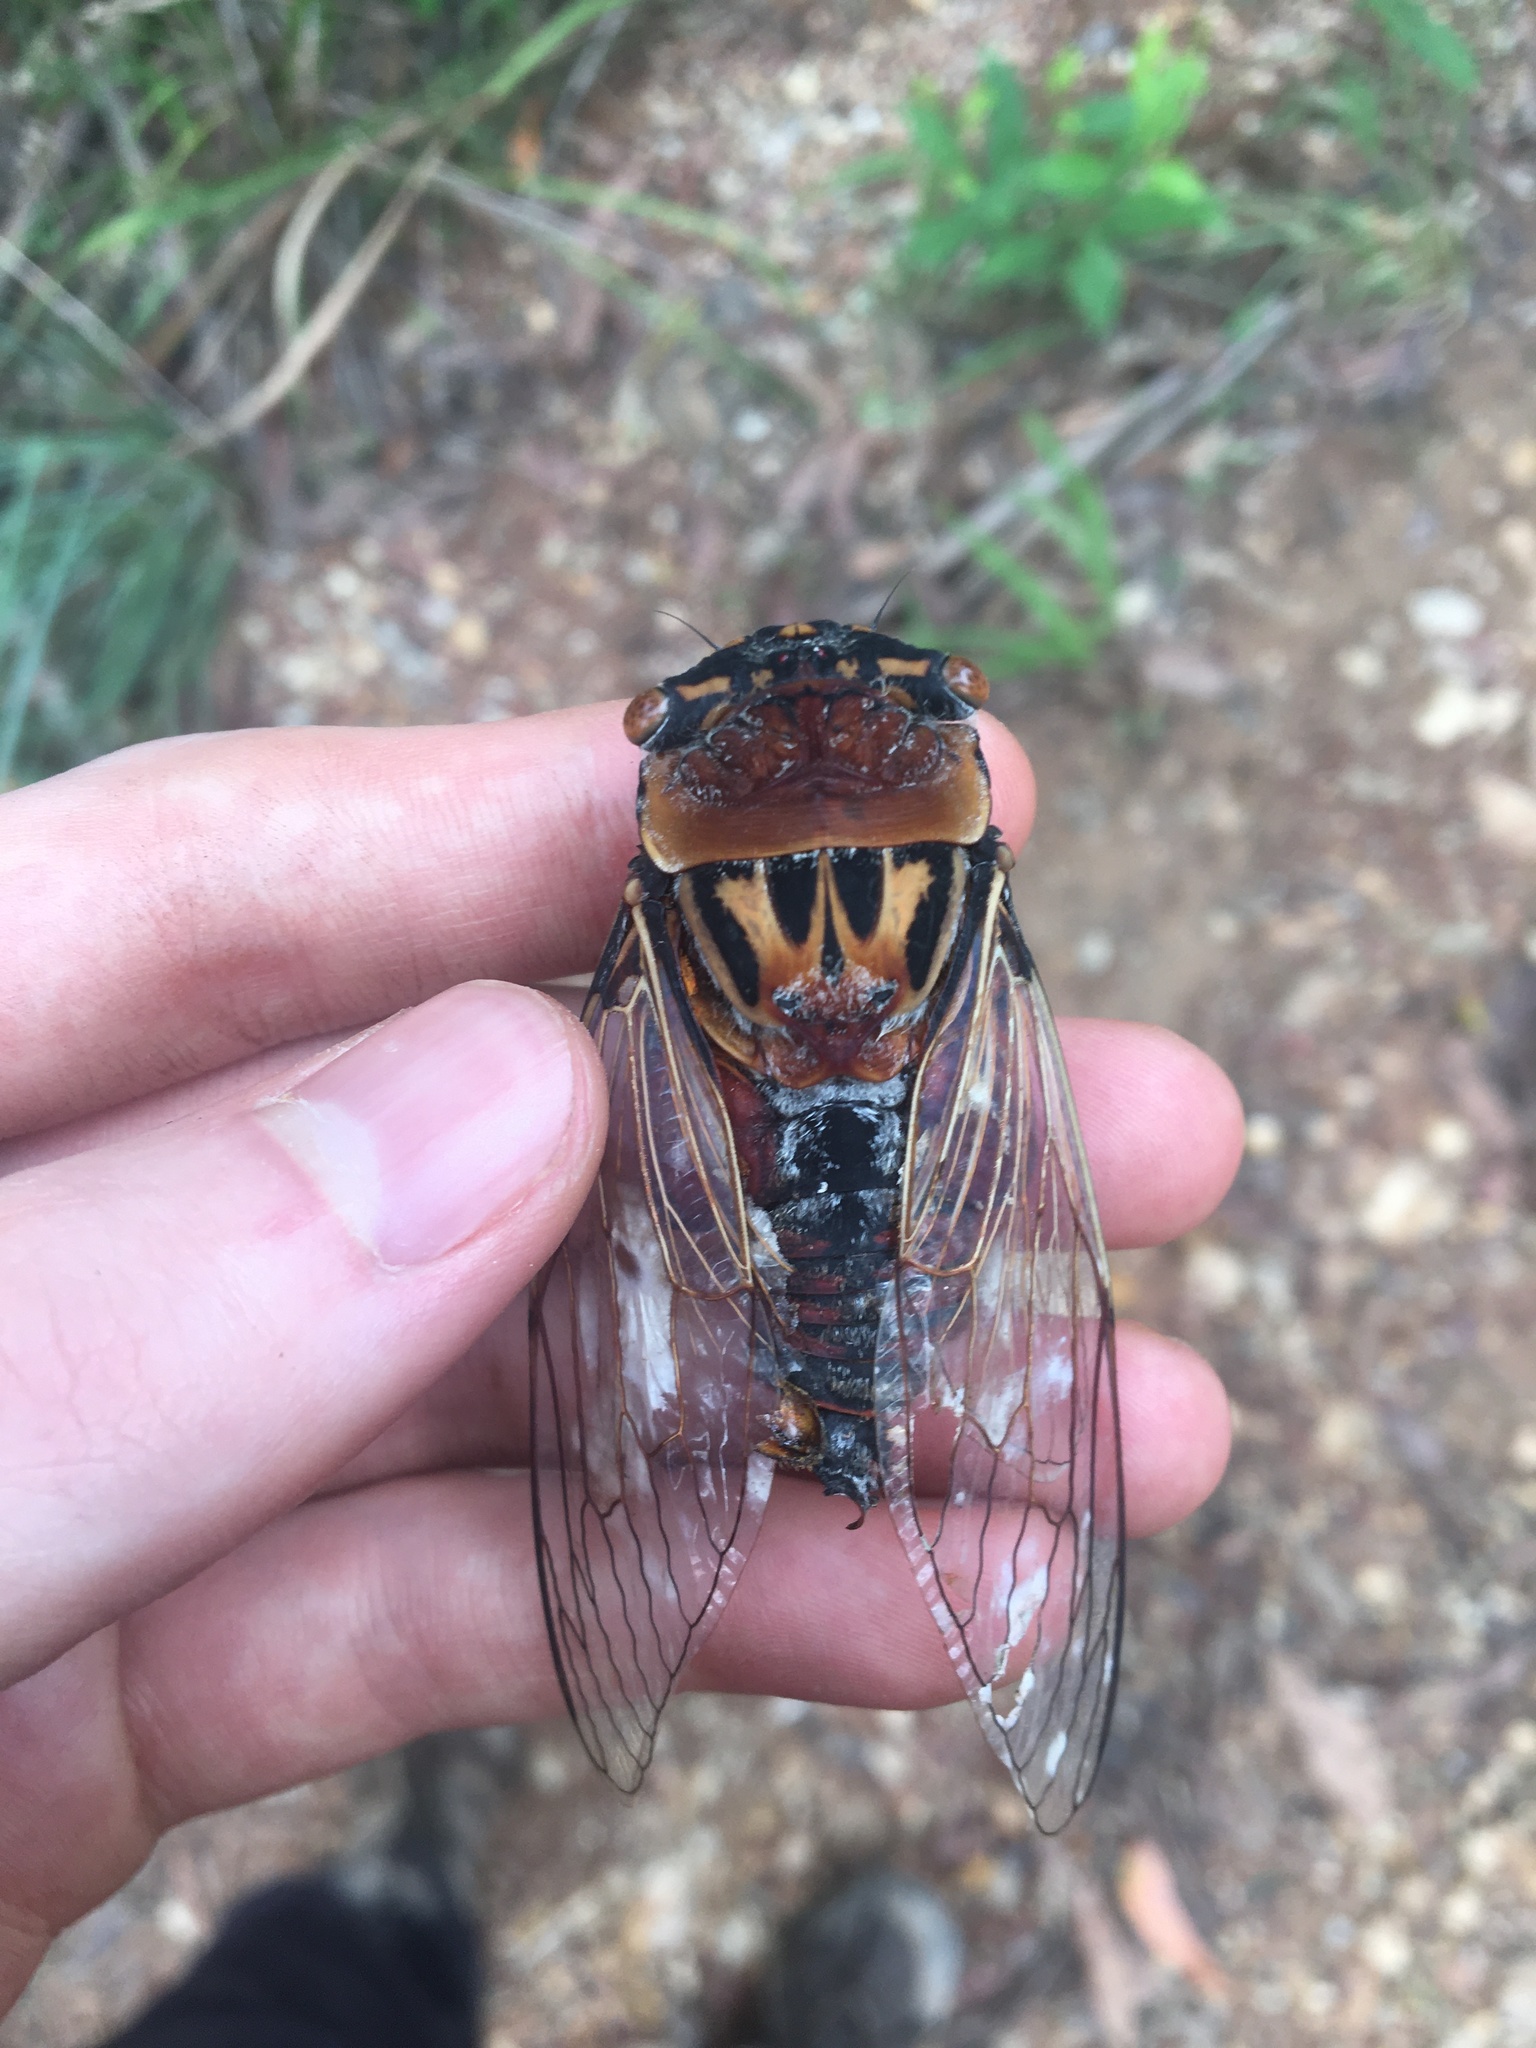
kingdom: Animalia
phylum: Arthropoda
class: Insecta
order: Hemiptera
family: Cicadidae
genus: Thopha
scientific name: Thopha saccata
